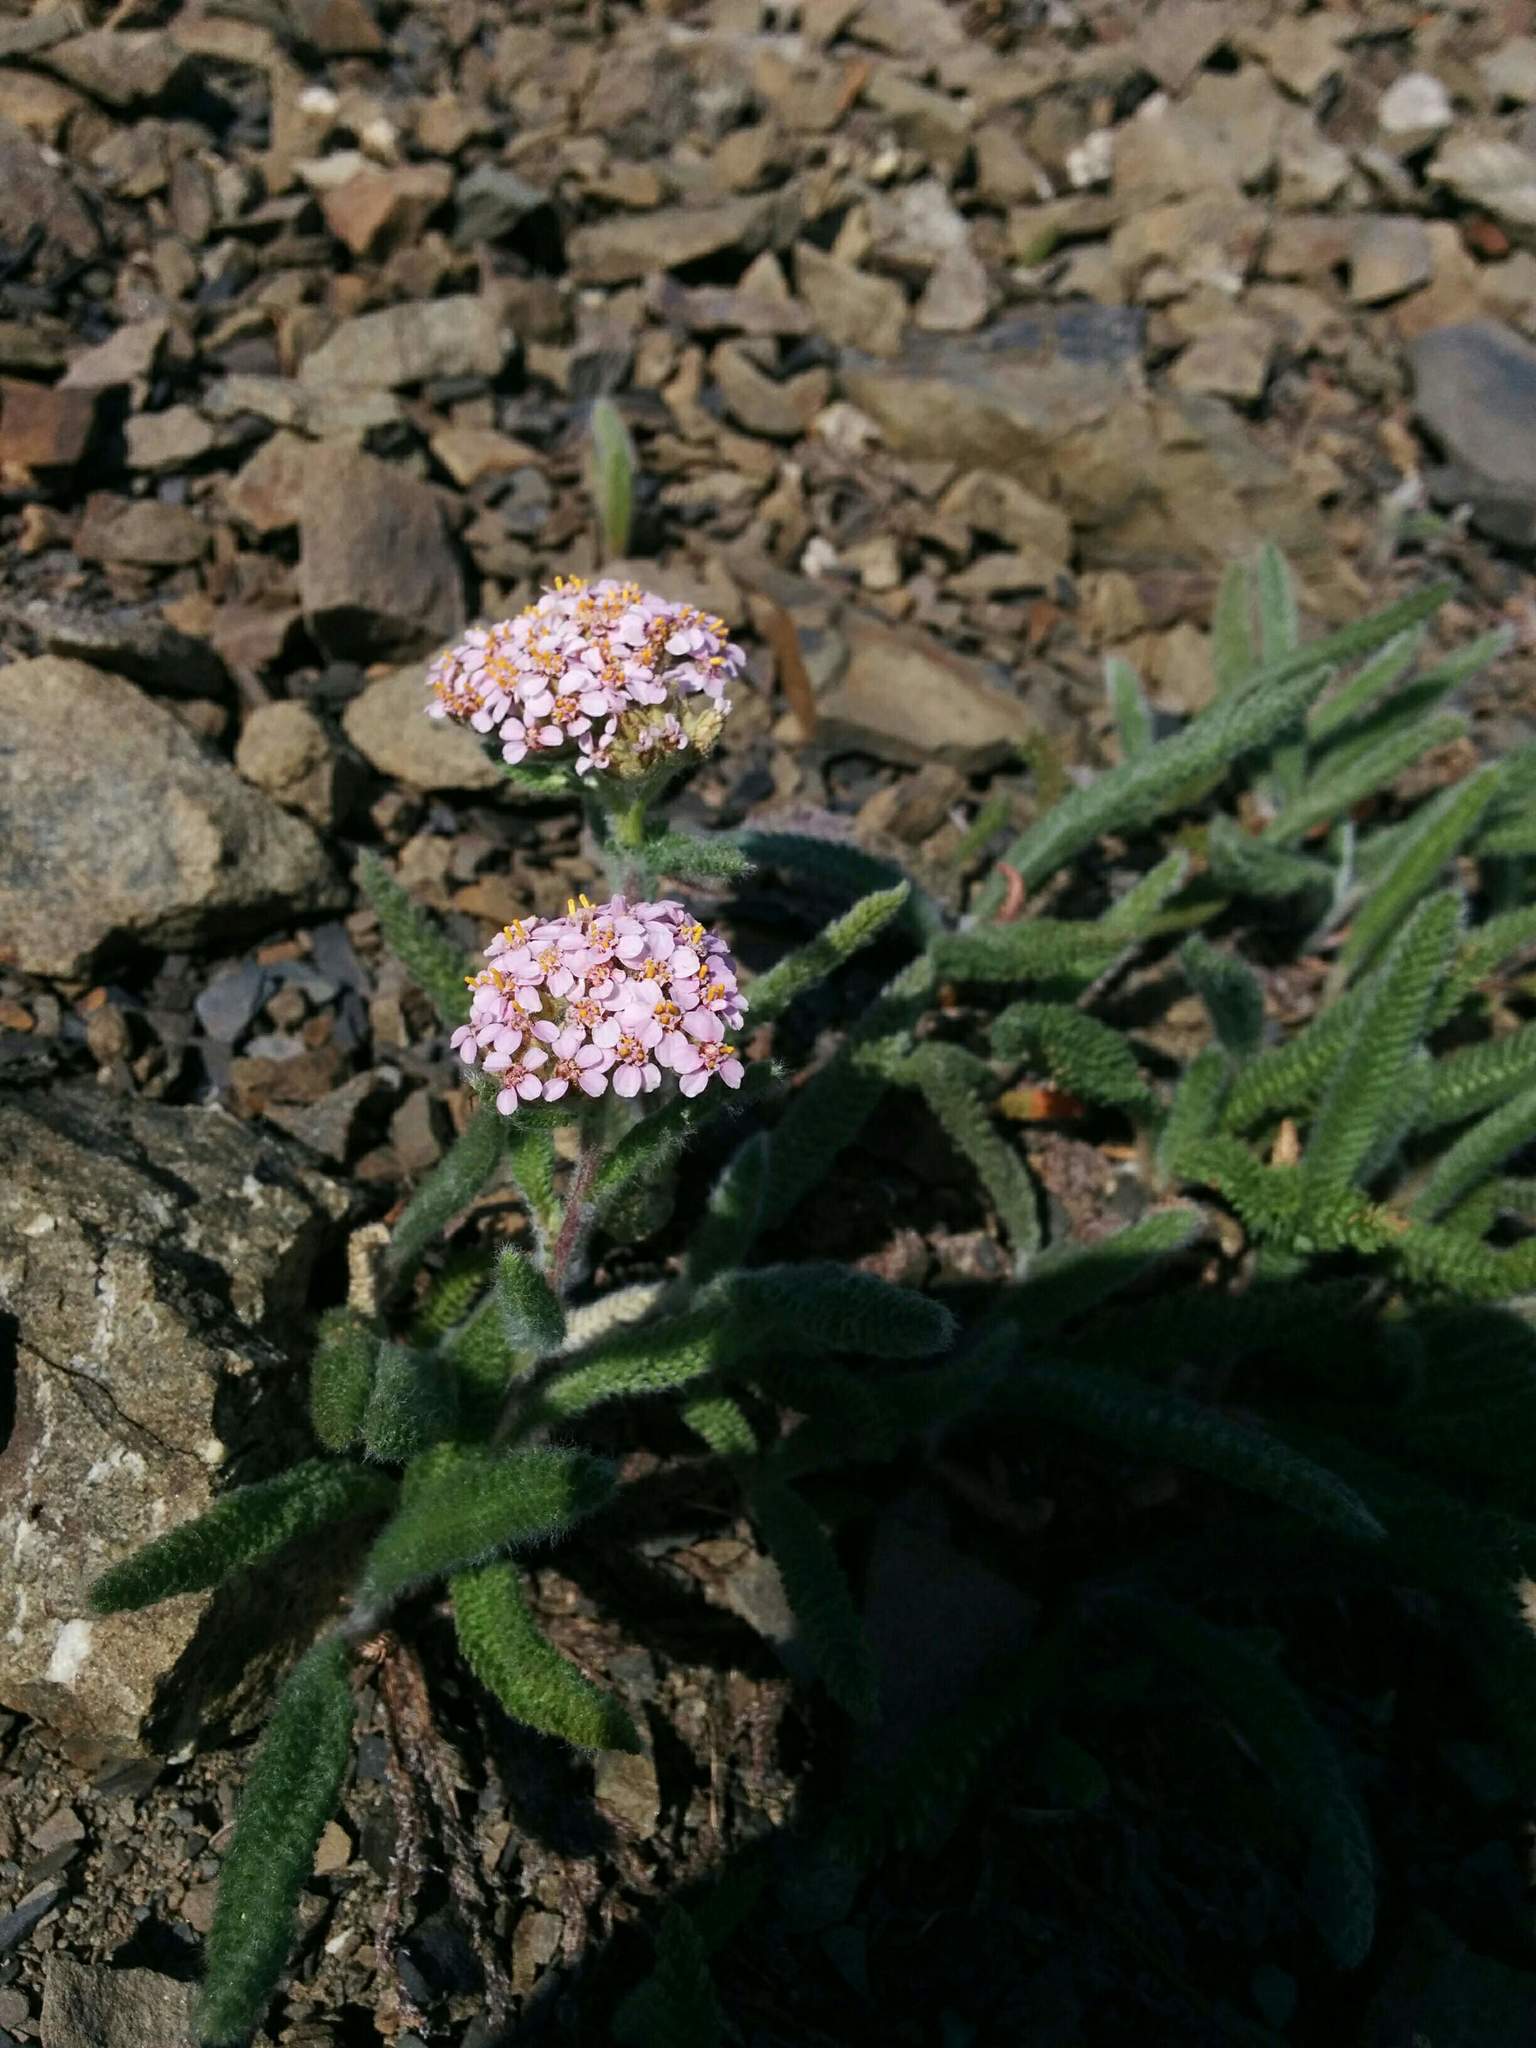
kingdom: Plantae
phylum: Tracheophyta
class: Magnoliopsida
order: Asterales
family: Asteraceae
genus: Achillea
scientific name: Achillea millefolium
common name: Yarrow
